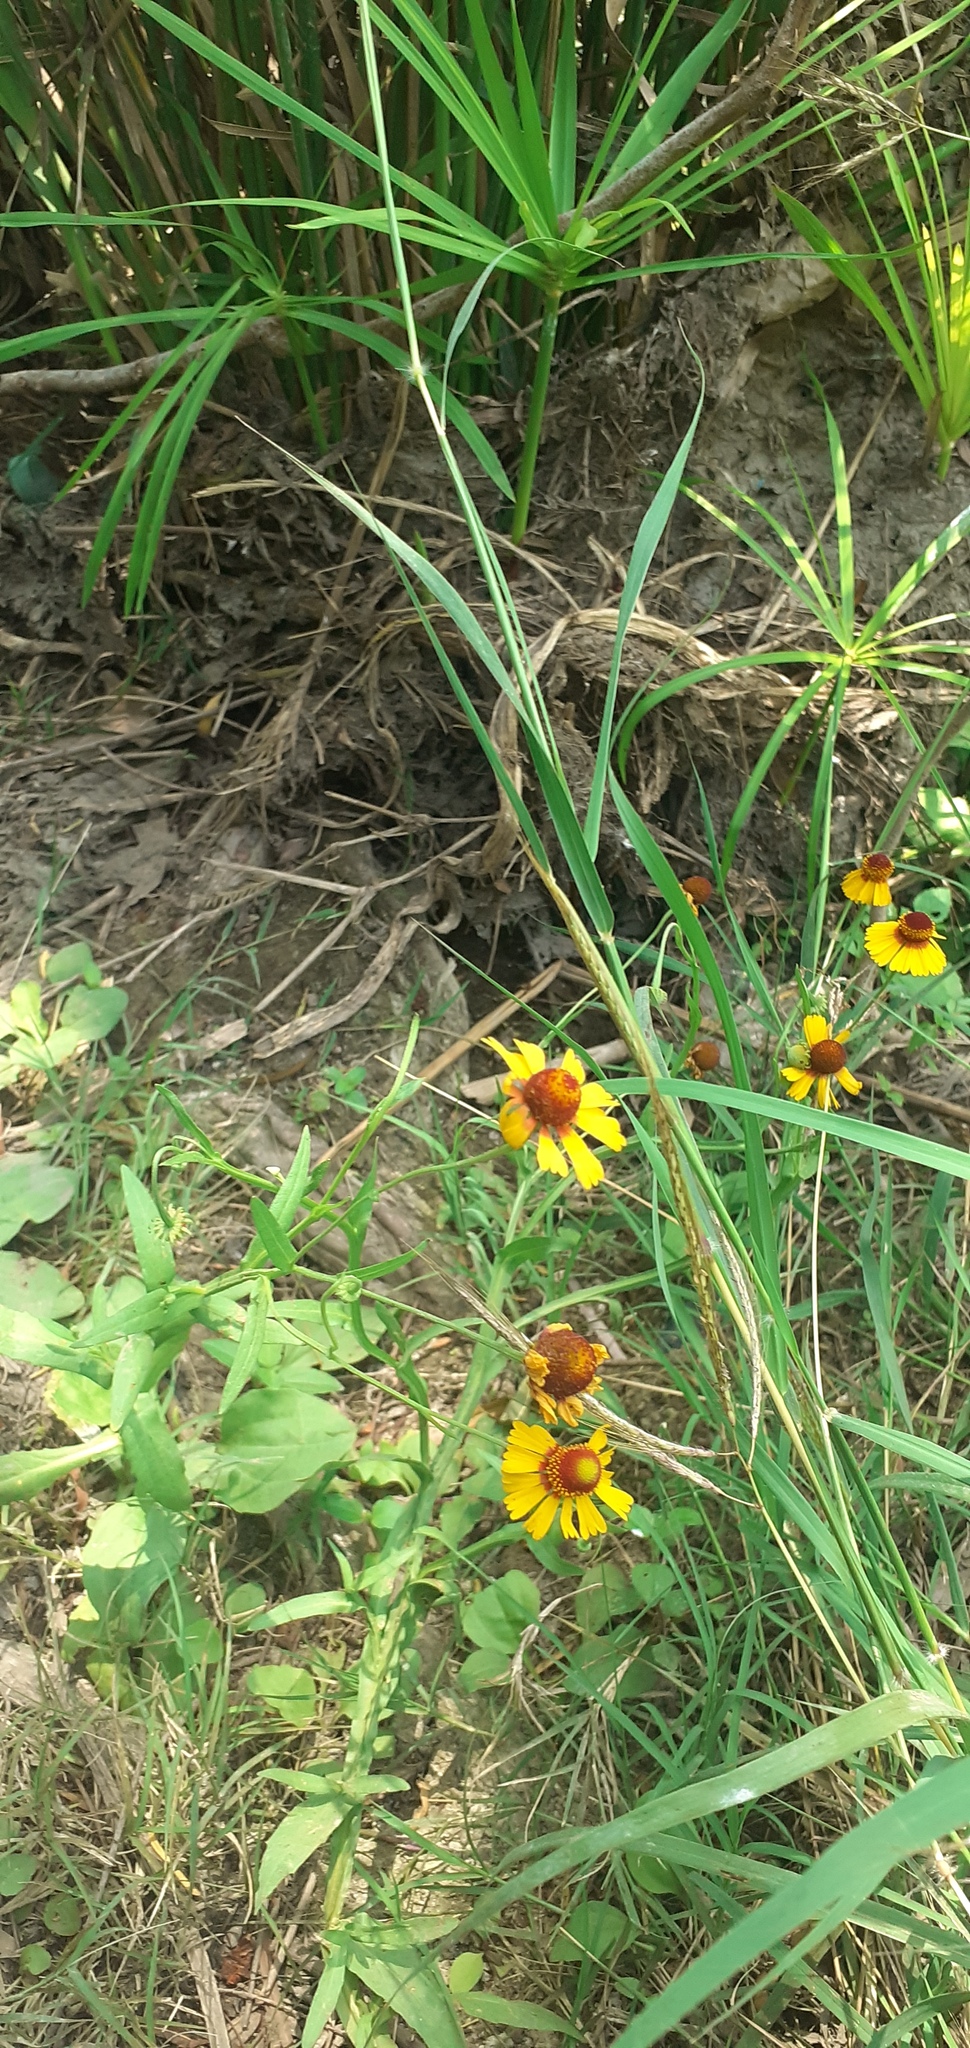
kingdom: Plantae
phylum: Tracheophyta
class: Magnoliopsida
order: Asterales
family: Asteraceae
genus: Helenium
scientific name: Helenium amphibolum
